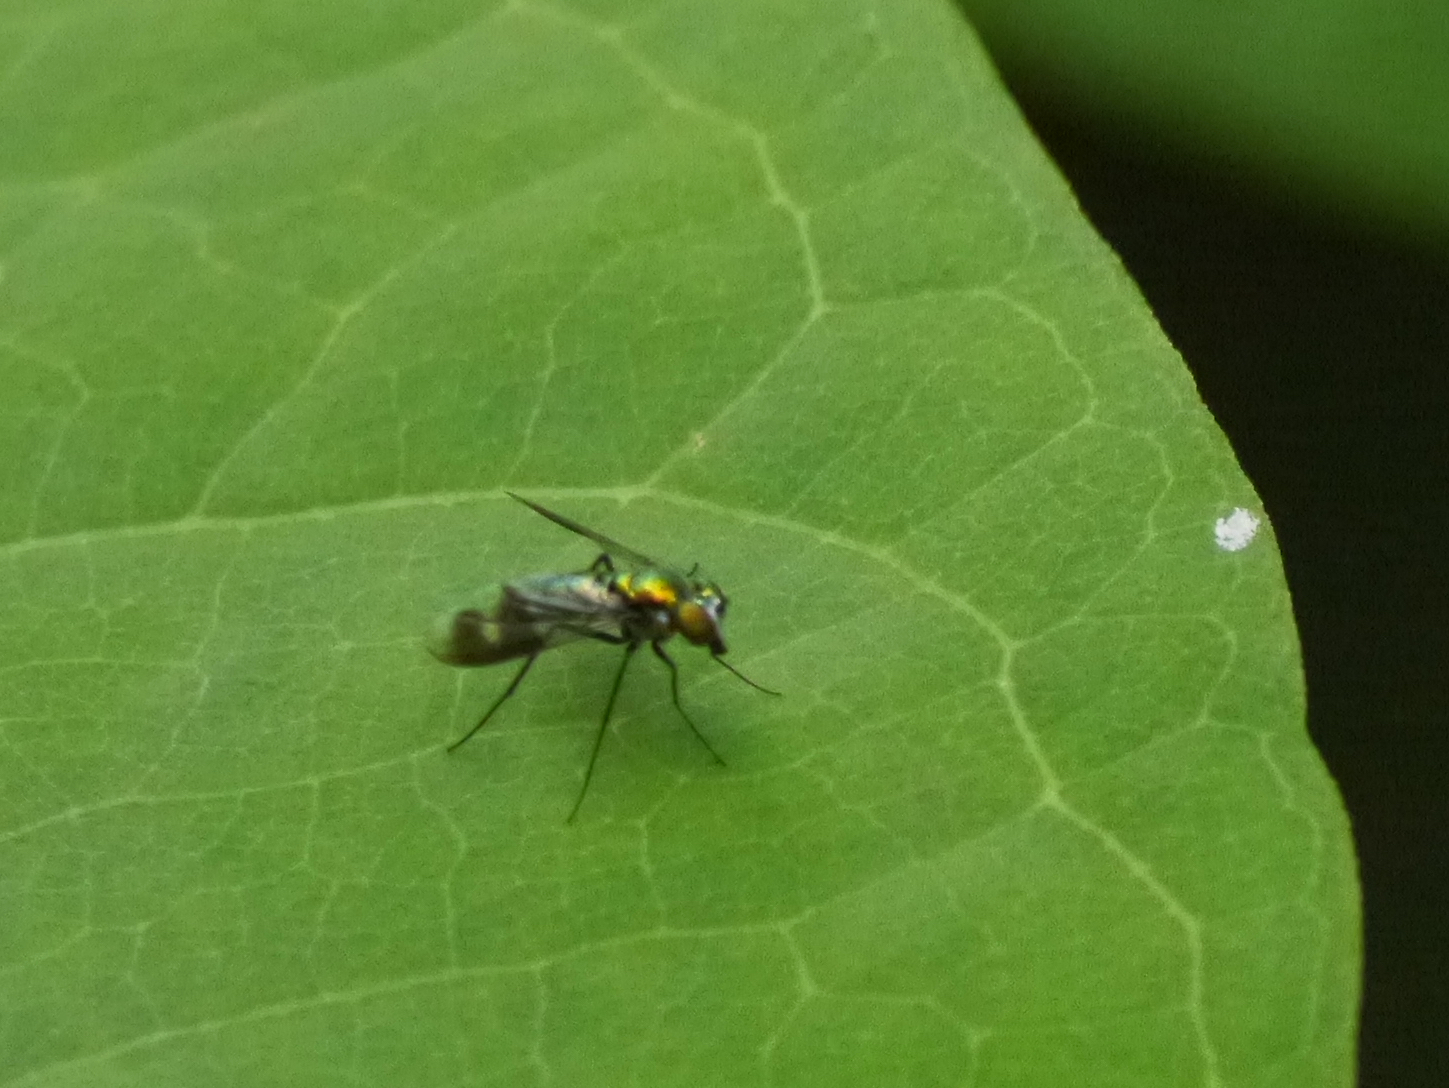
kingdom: Animalia
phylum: Arthropoda
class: Insecta
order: Diptera
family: Dolichopodidae
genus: Condylostylus
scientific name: Condylostylus patibulatus
